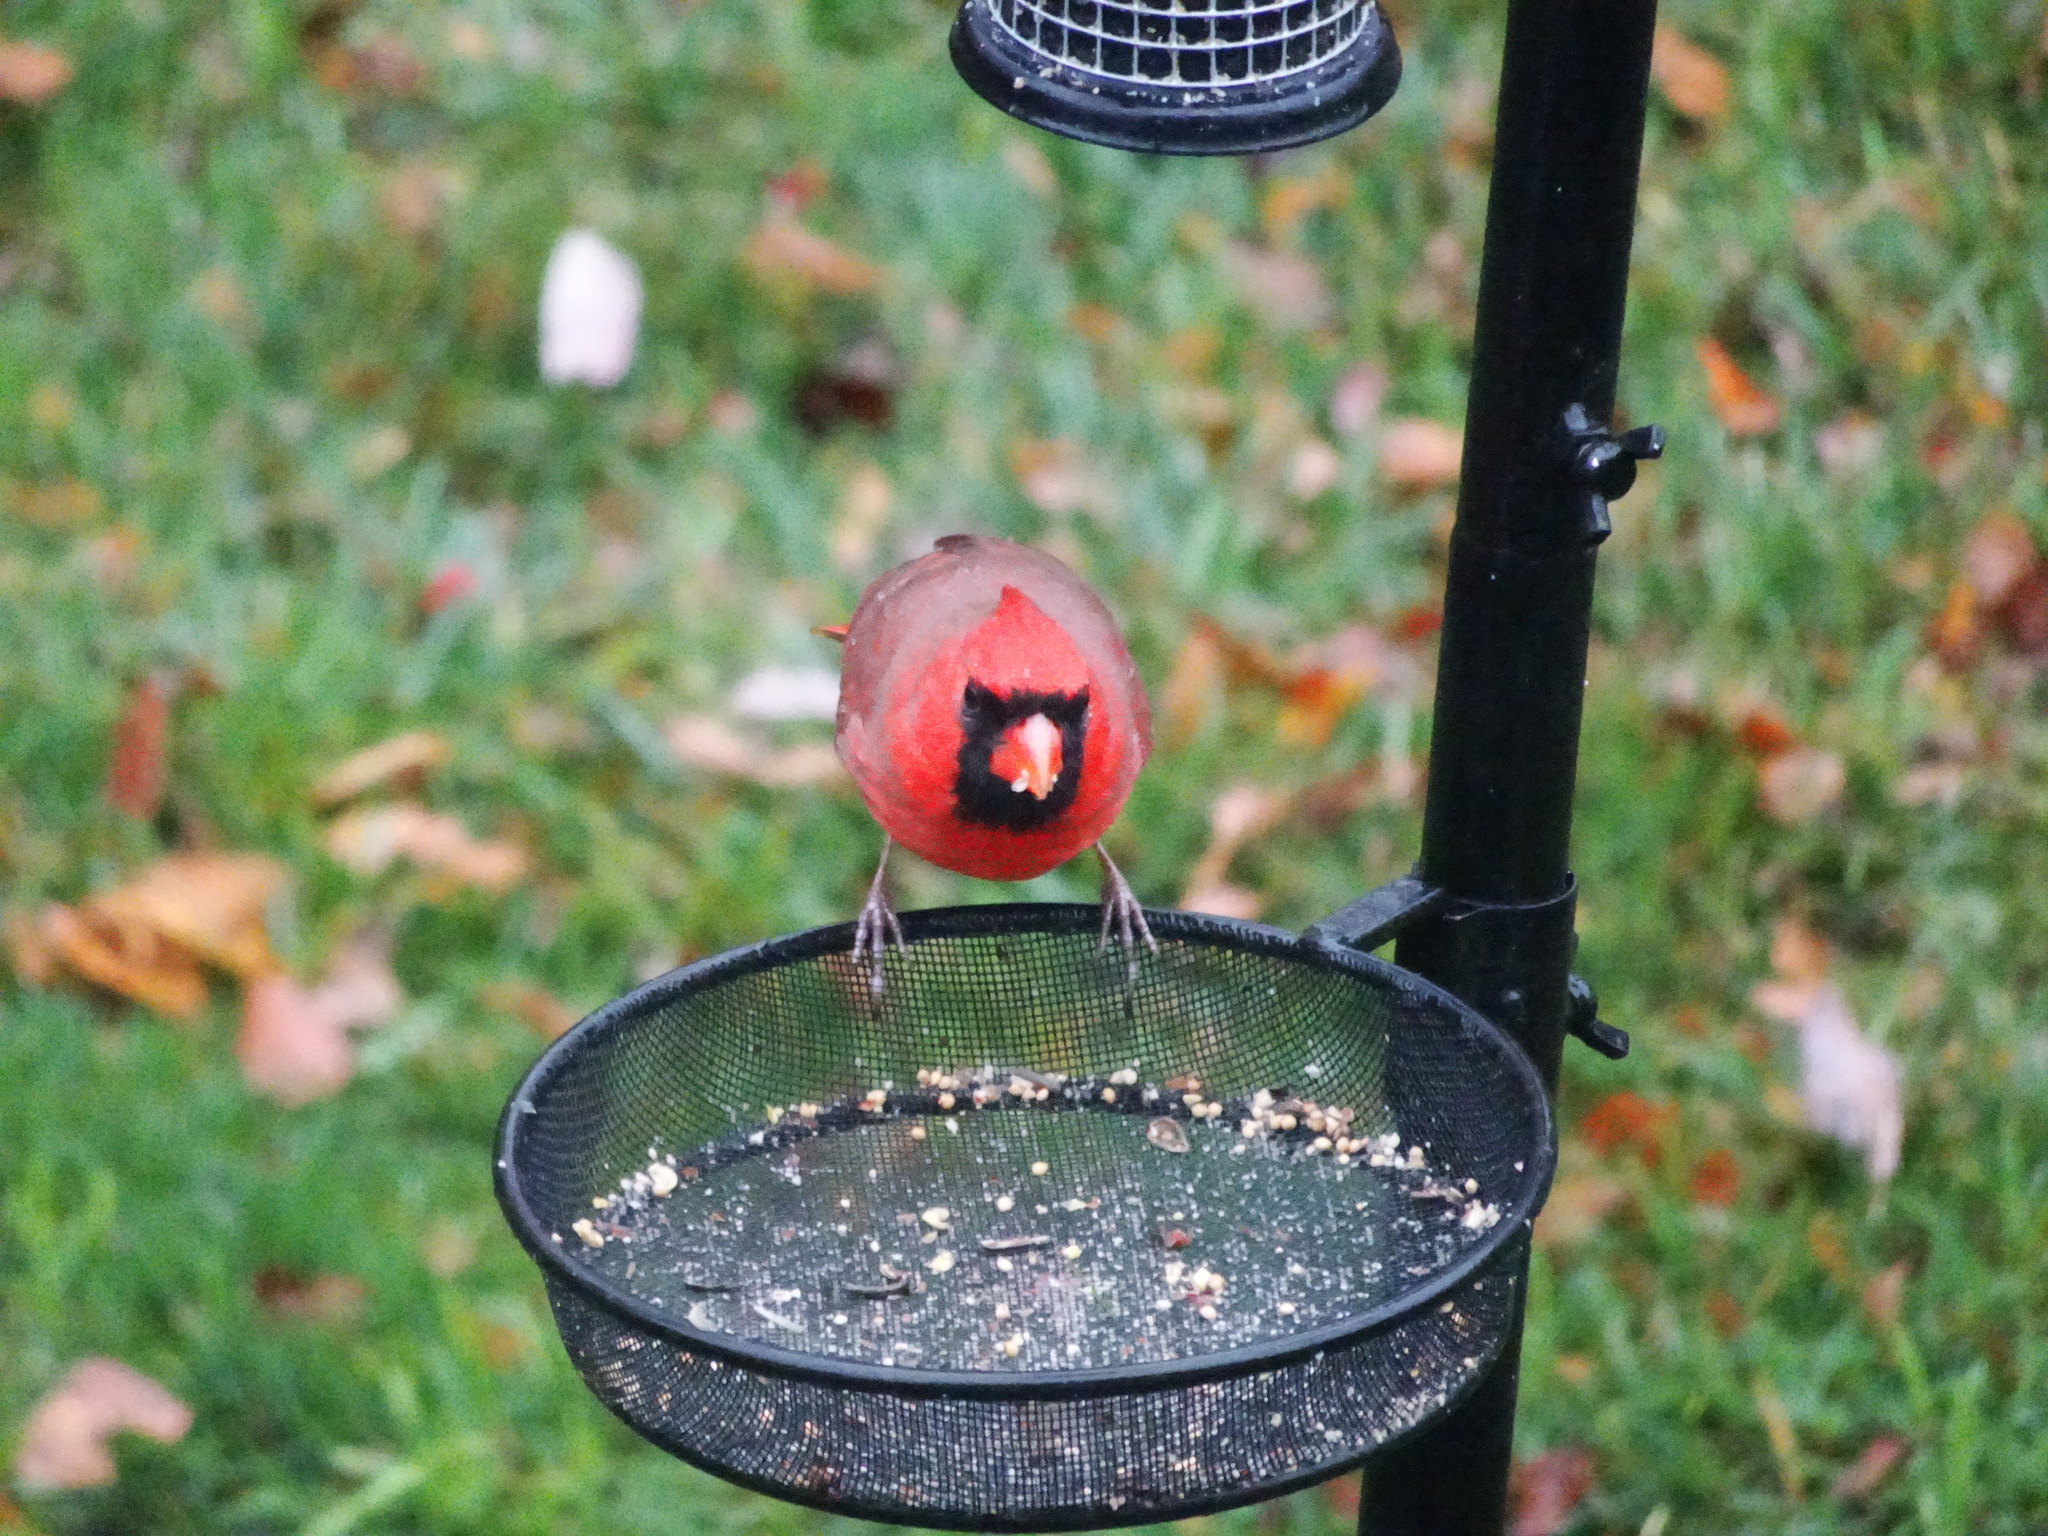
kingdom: Animalia
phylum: Chordata
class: Aves
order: Passeriformes
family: Cardinalidae
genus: Cardinalis
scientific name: Cardinalis cardinalis
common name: Northern cardinal
